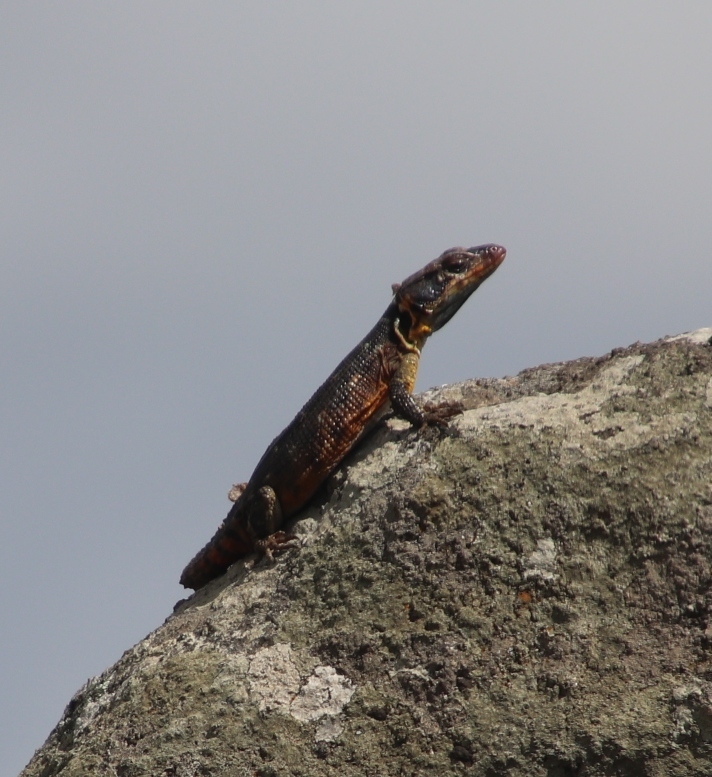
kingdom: Animalia
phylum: Chordata
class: Squamata
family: Cordylidae
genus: Pseudocordylus
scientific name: Pseudocordylus melanotus
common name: Highveld crag lizard
